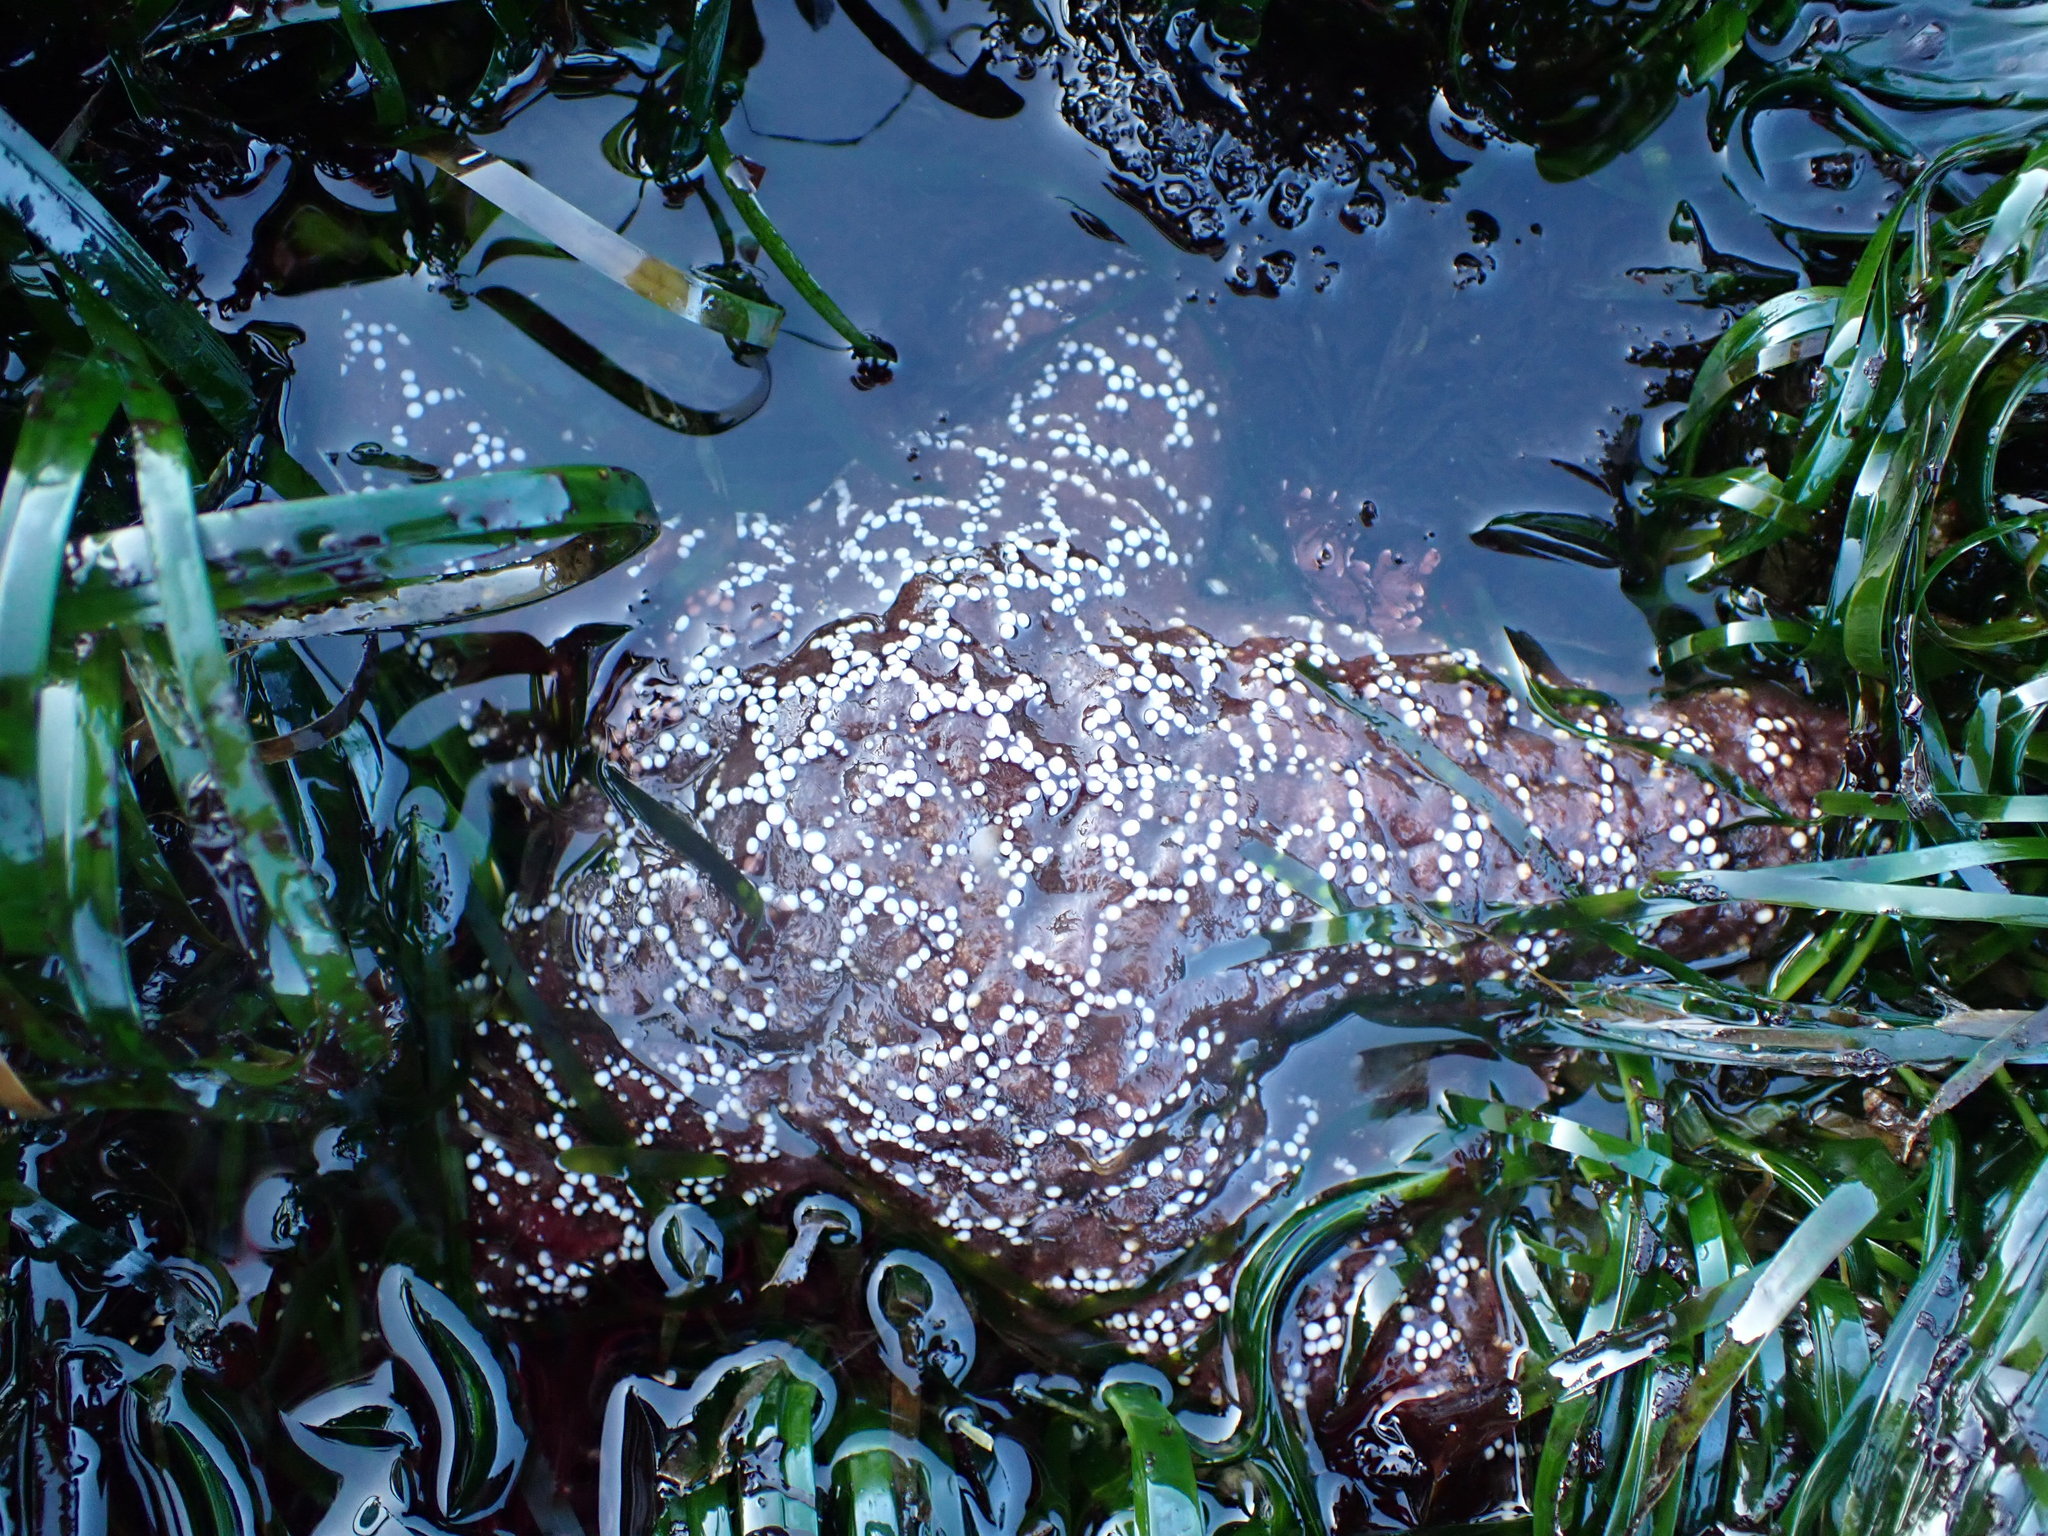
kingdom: Animalia
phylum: Echinodermata
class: Asteroidea
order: Forcipulatida
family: Asteriidae
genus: Pisaster
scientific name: Pisaster ochraceus
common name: Ochre stars
